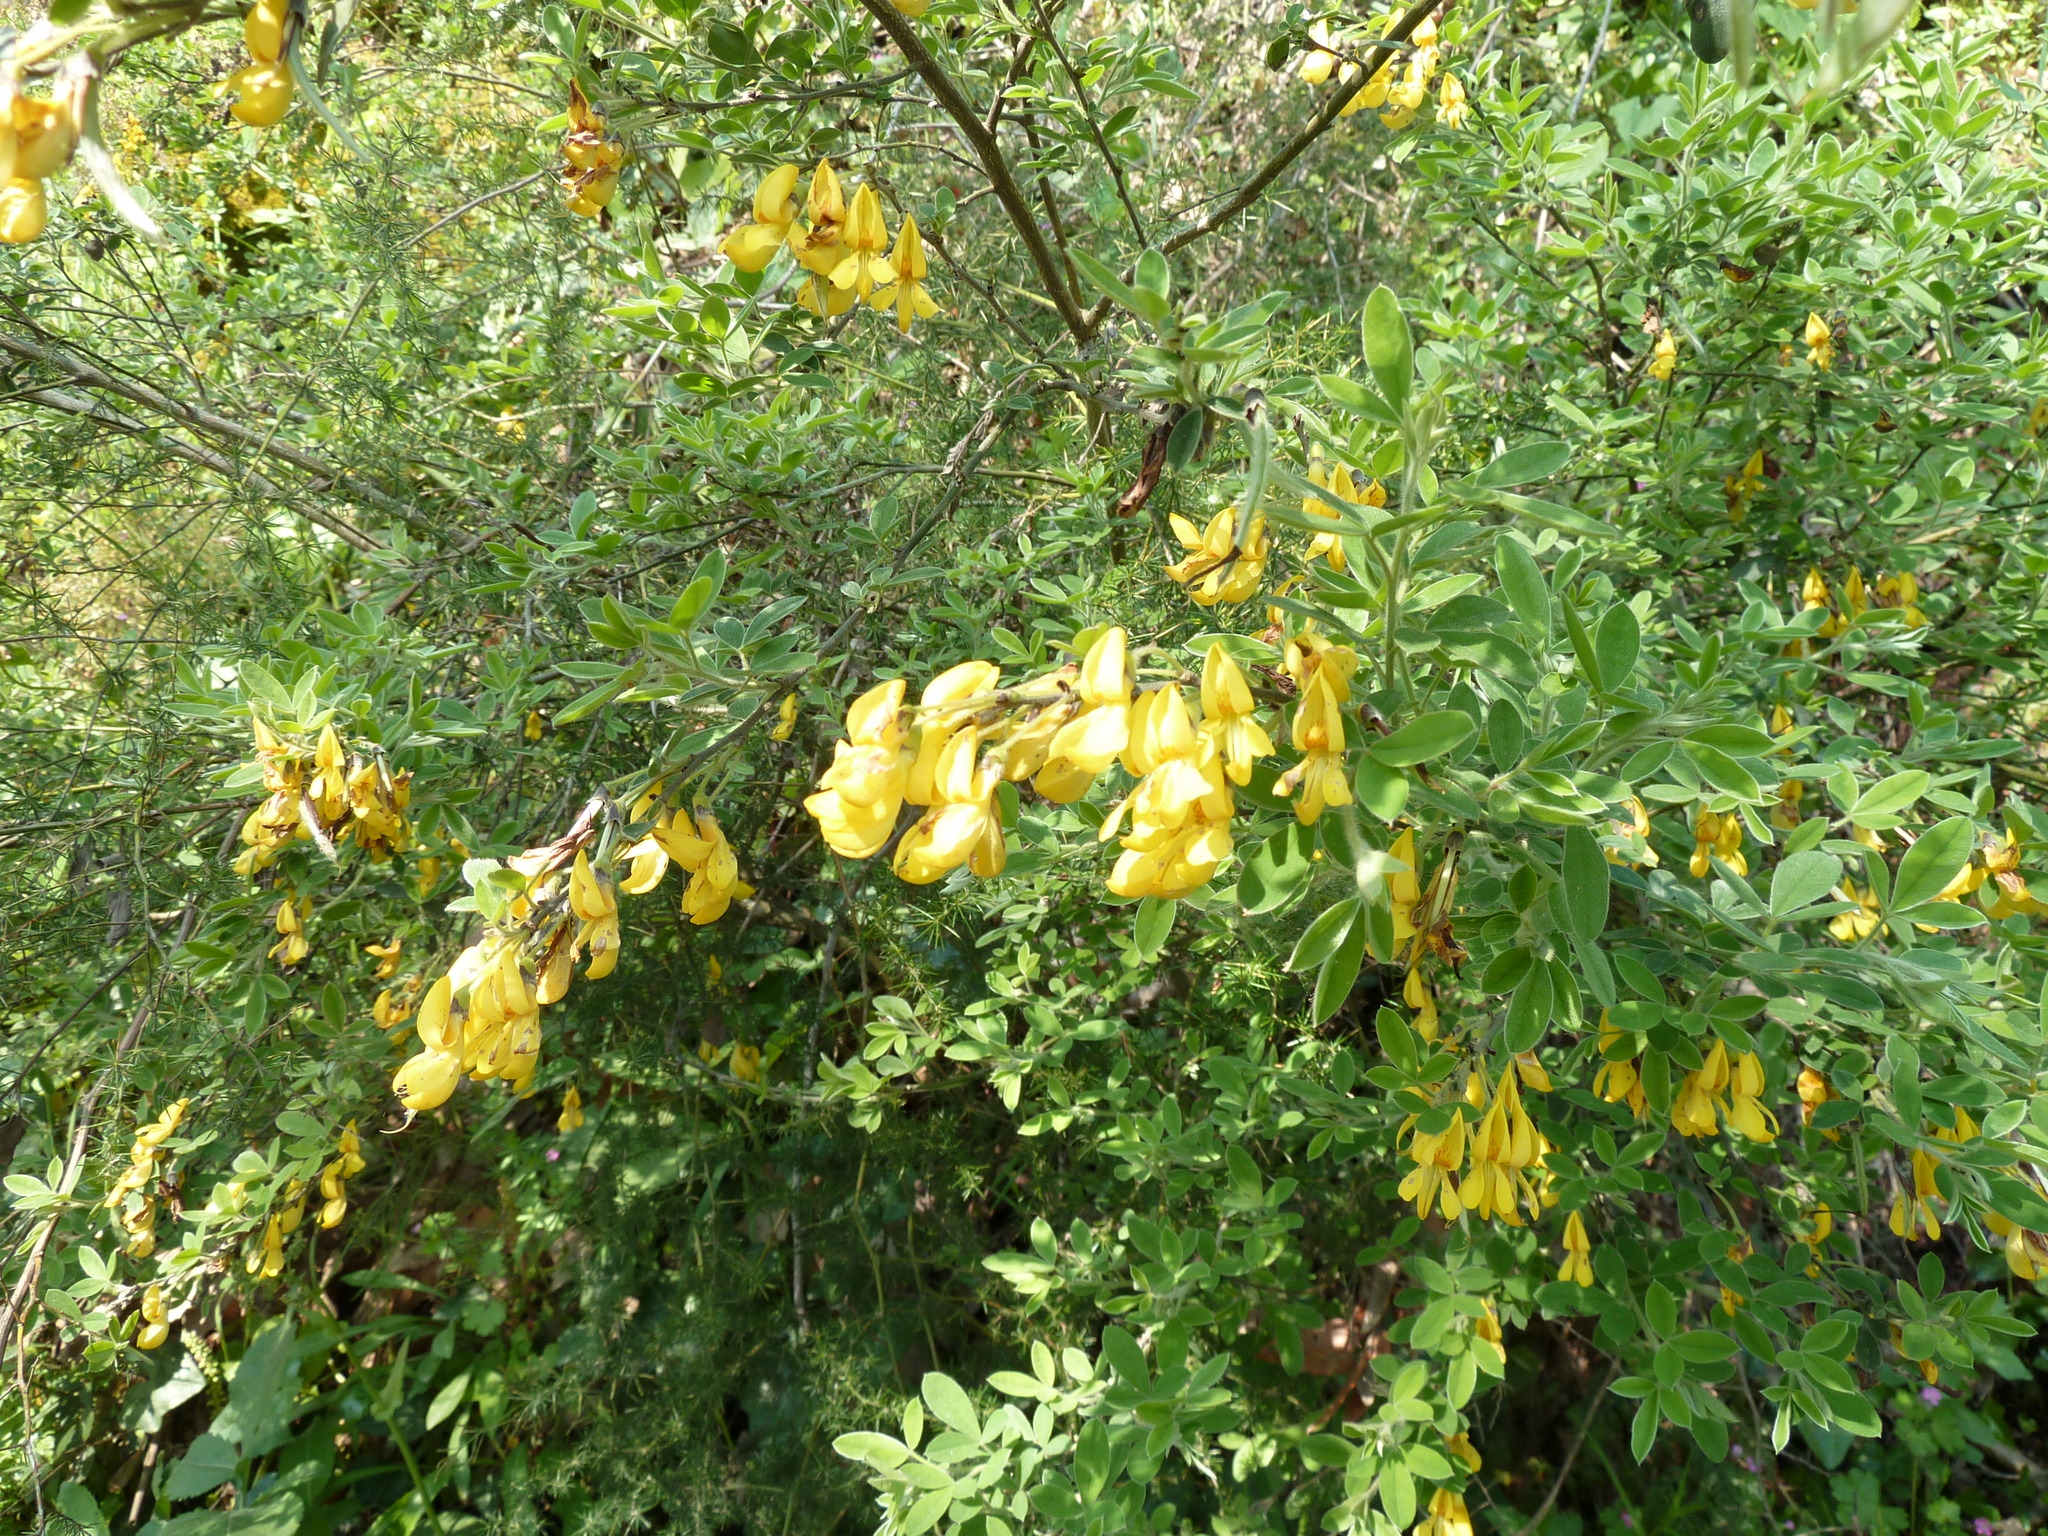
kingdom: Plantae
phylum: Tracheophyta
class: Magnoliopsida
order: Fabales
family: Fabaceae
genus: Cytisus
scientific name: Cytisus villosus
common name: Hairybroom
